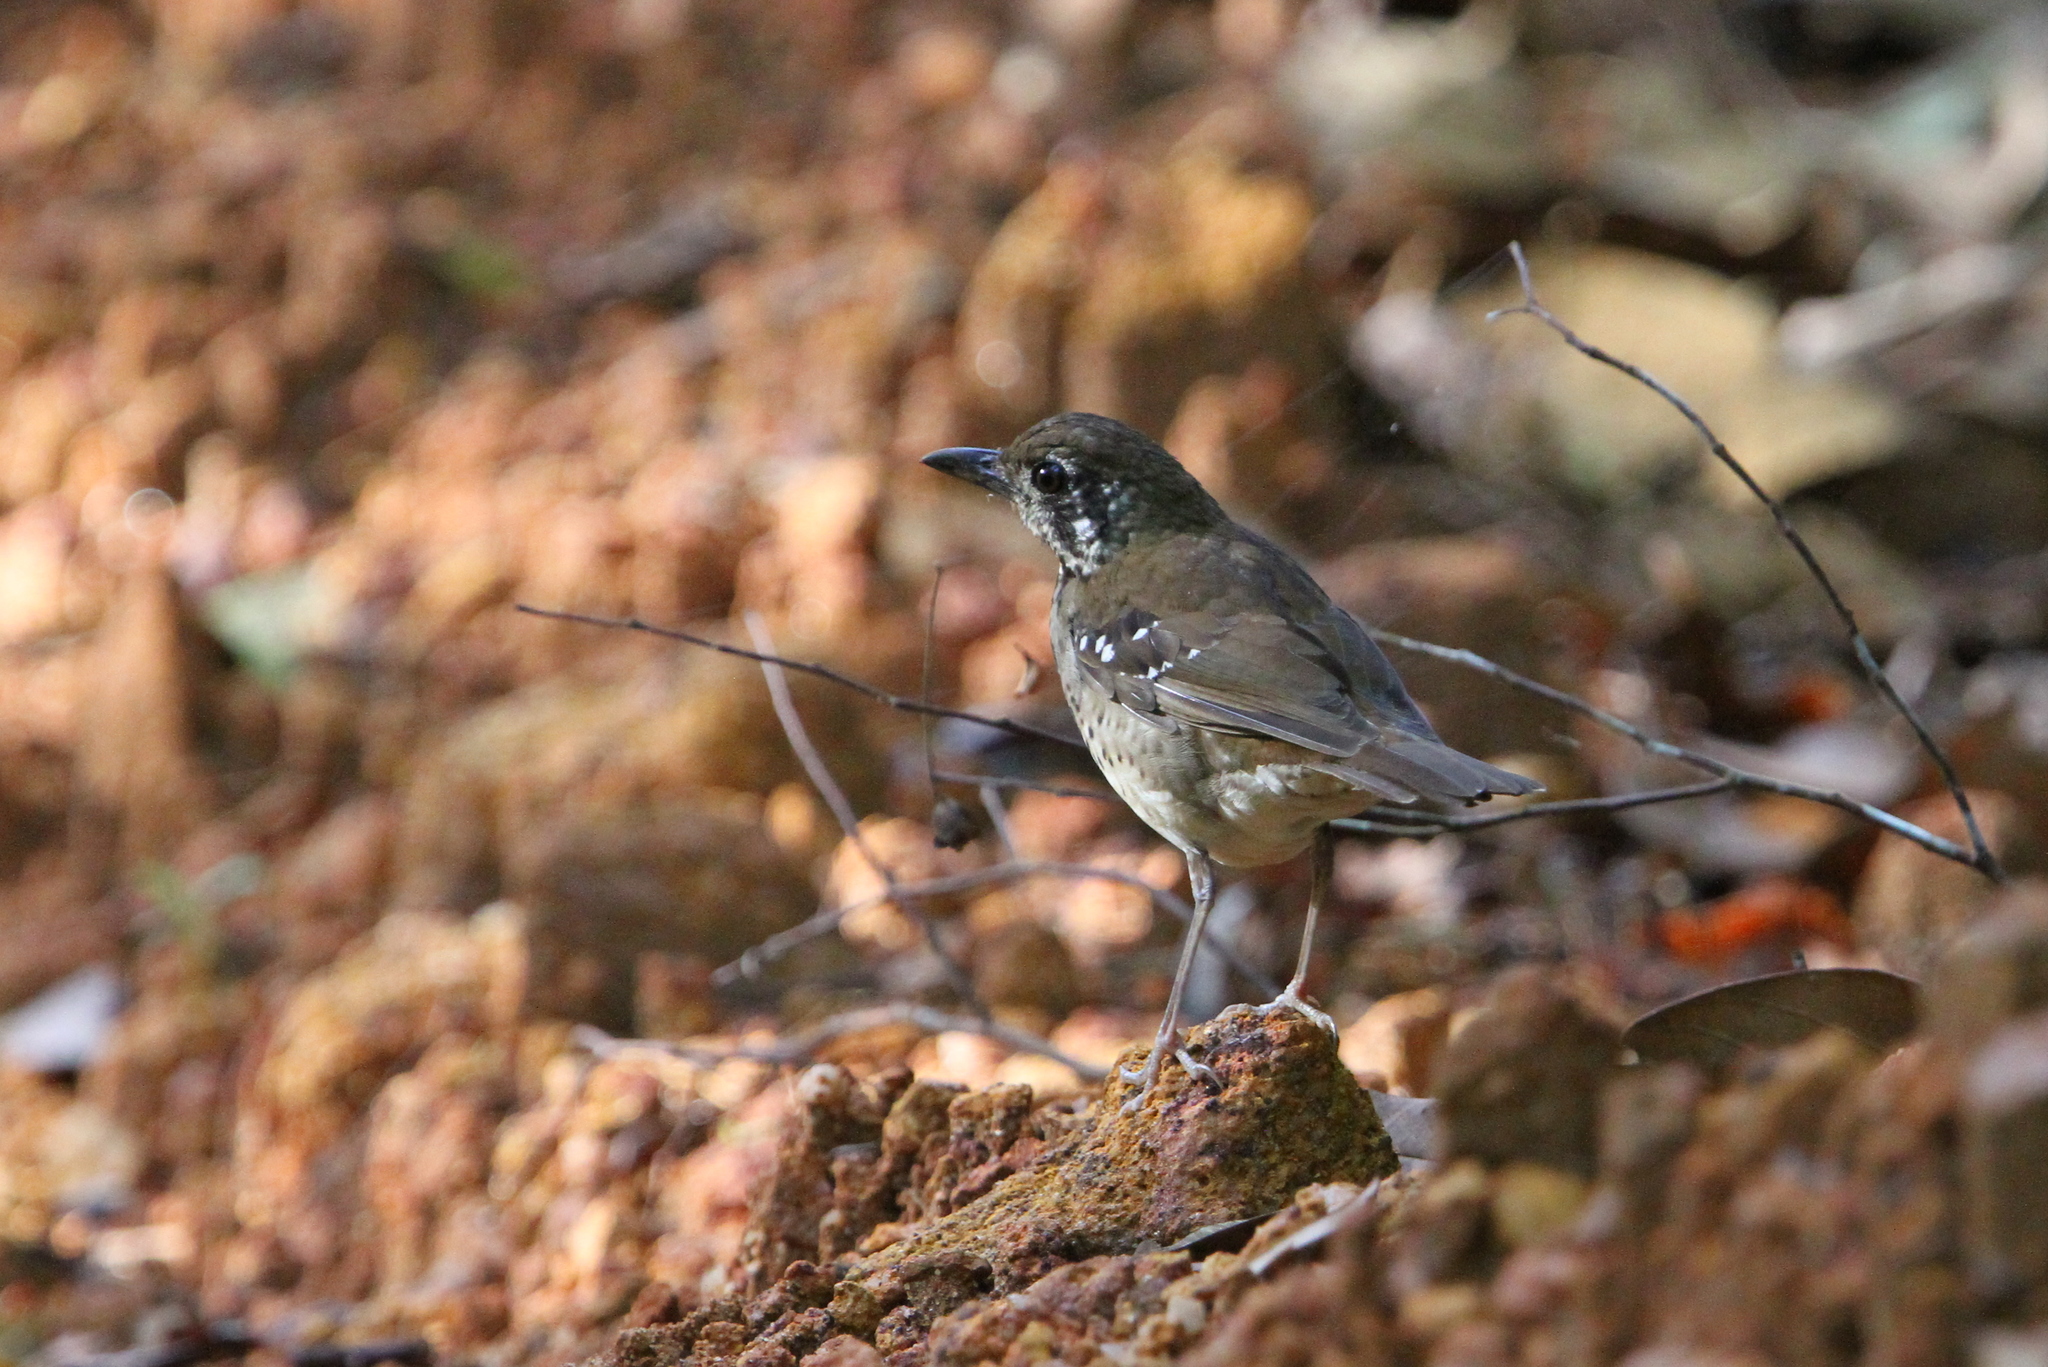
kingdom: Animalia
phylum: Chordata
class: Aves
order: Passeriformes
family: Turdidae
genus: Geokichla
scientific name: Geokichla spiloptera
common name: Spot-winged thrush
